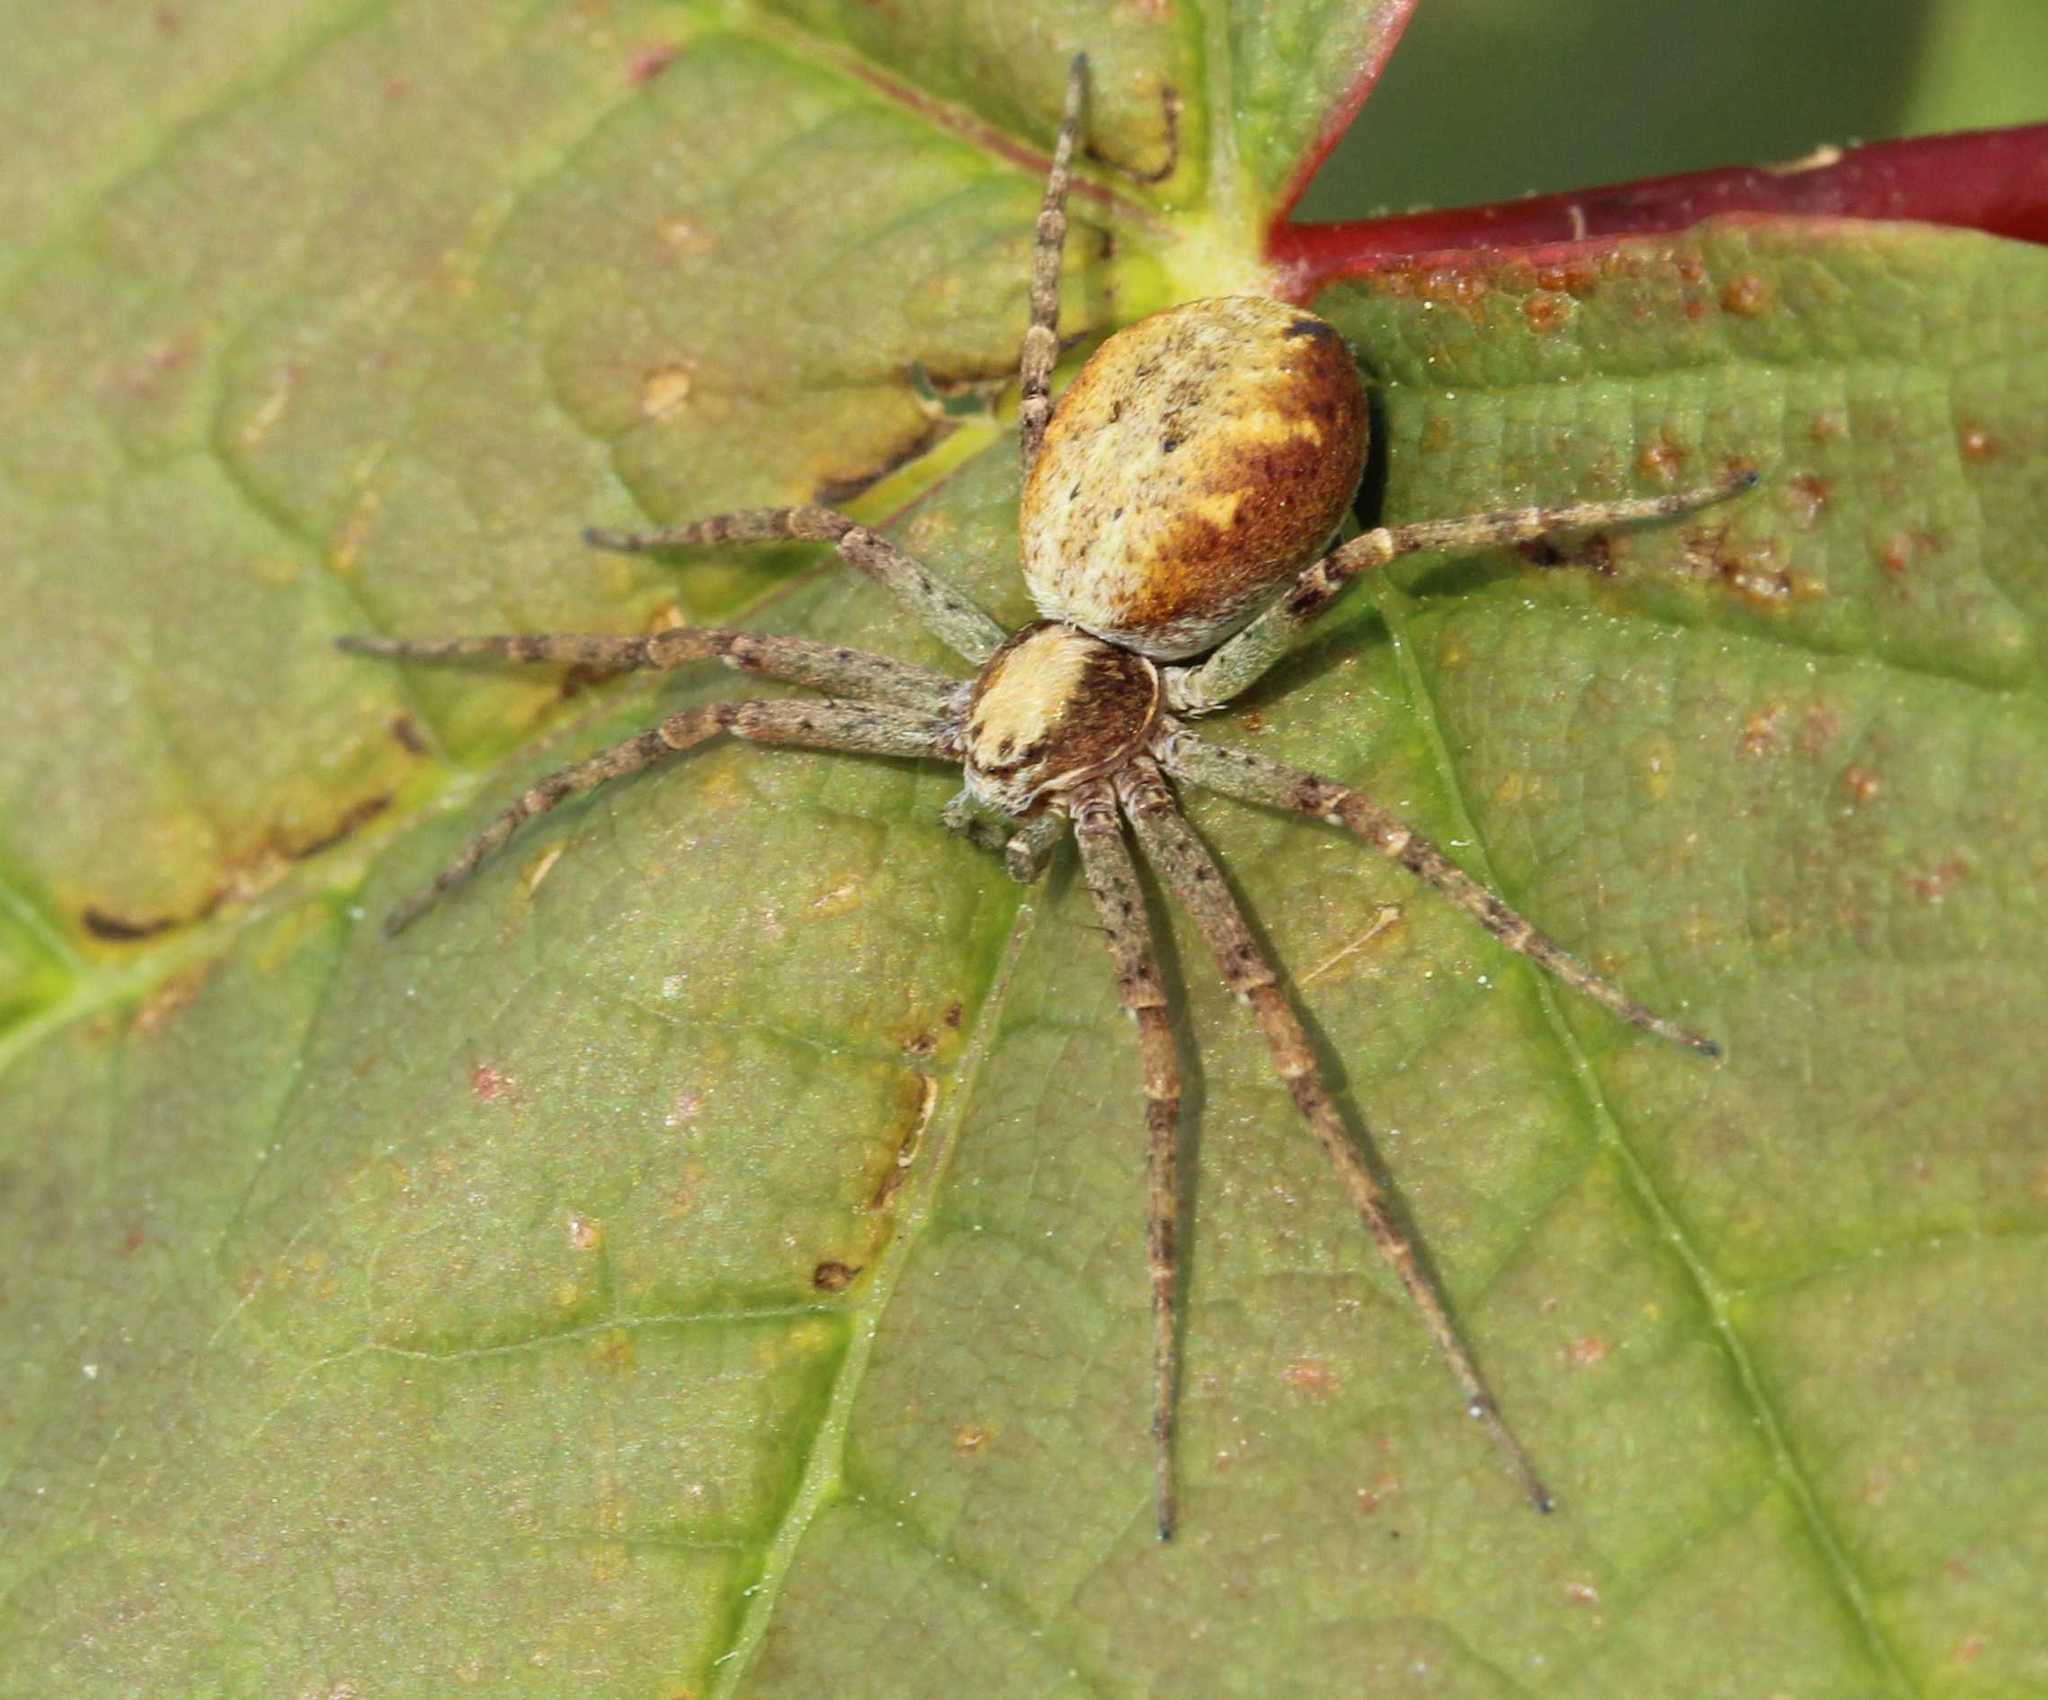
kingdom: Animalia
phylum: Arthropoda
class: Arachnida
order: Araneae
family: Philodromidae
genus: Philodromus
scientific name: Philodromus
